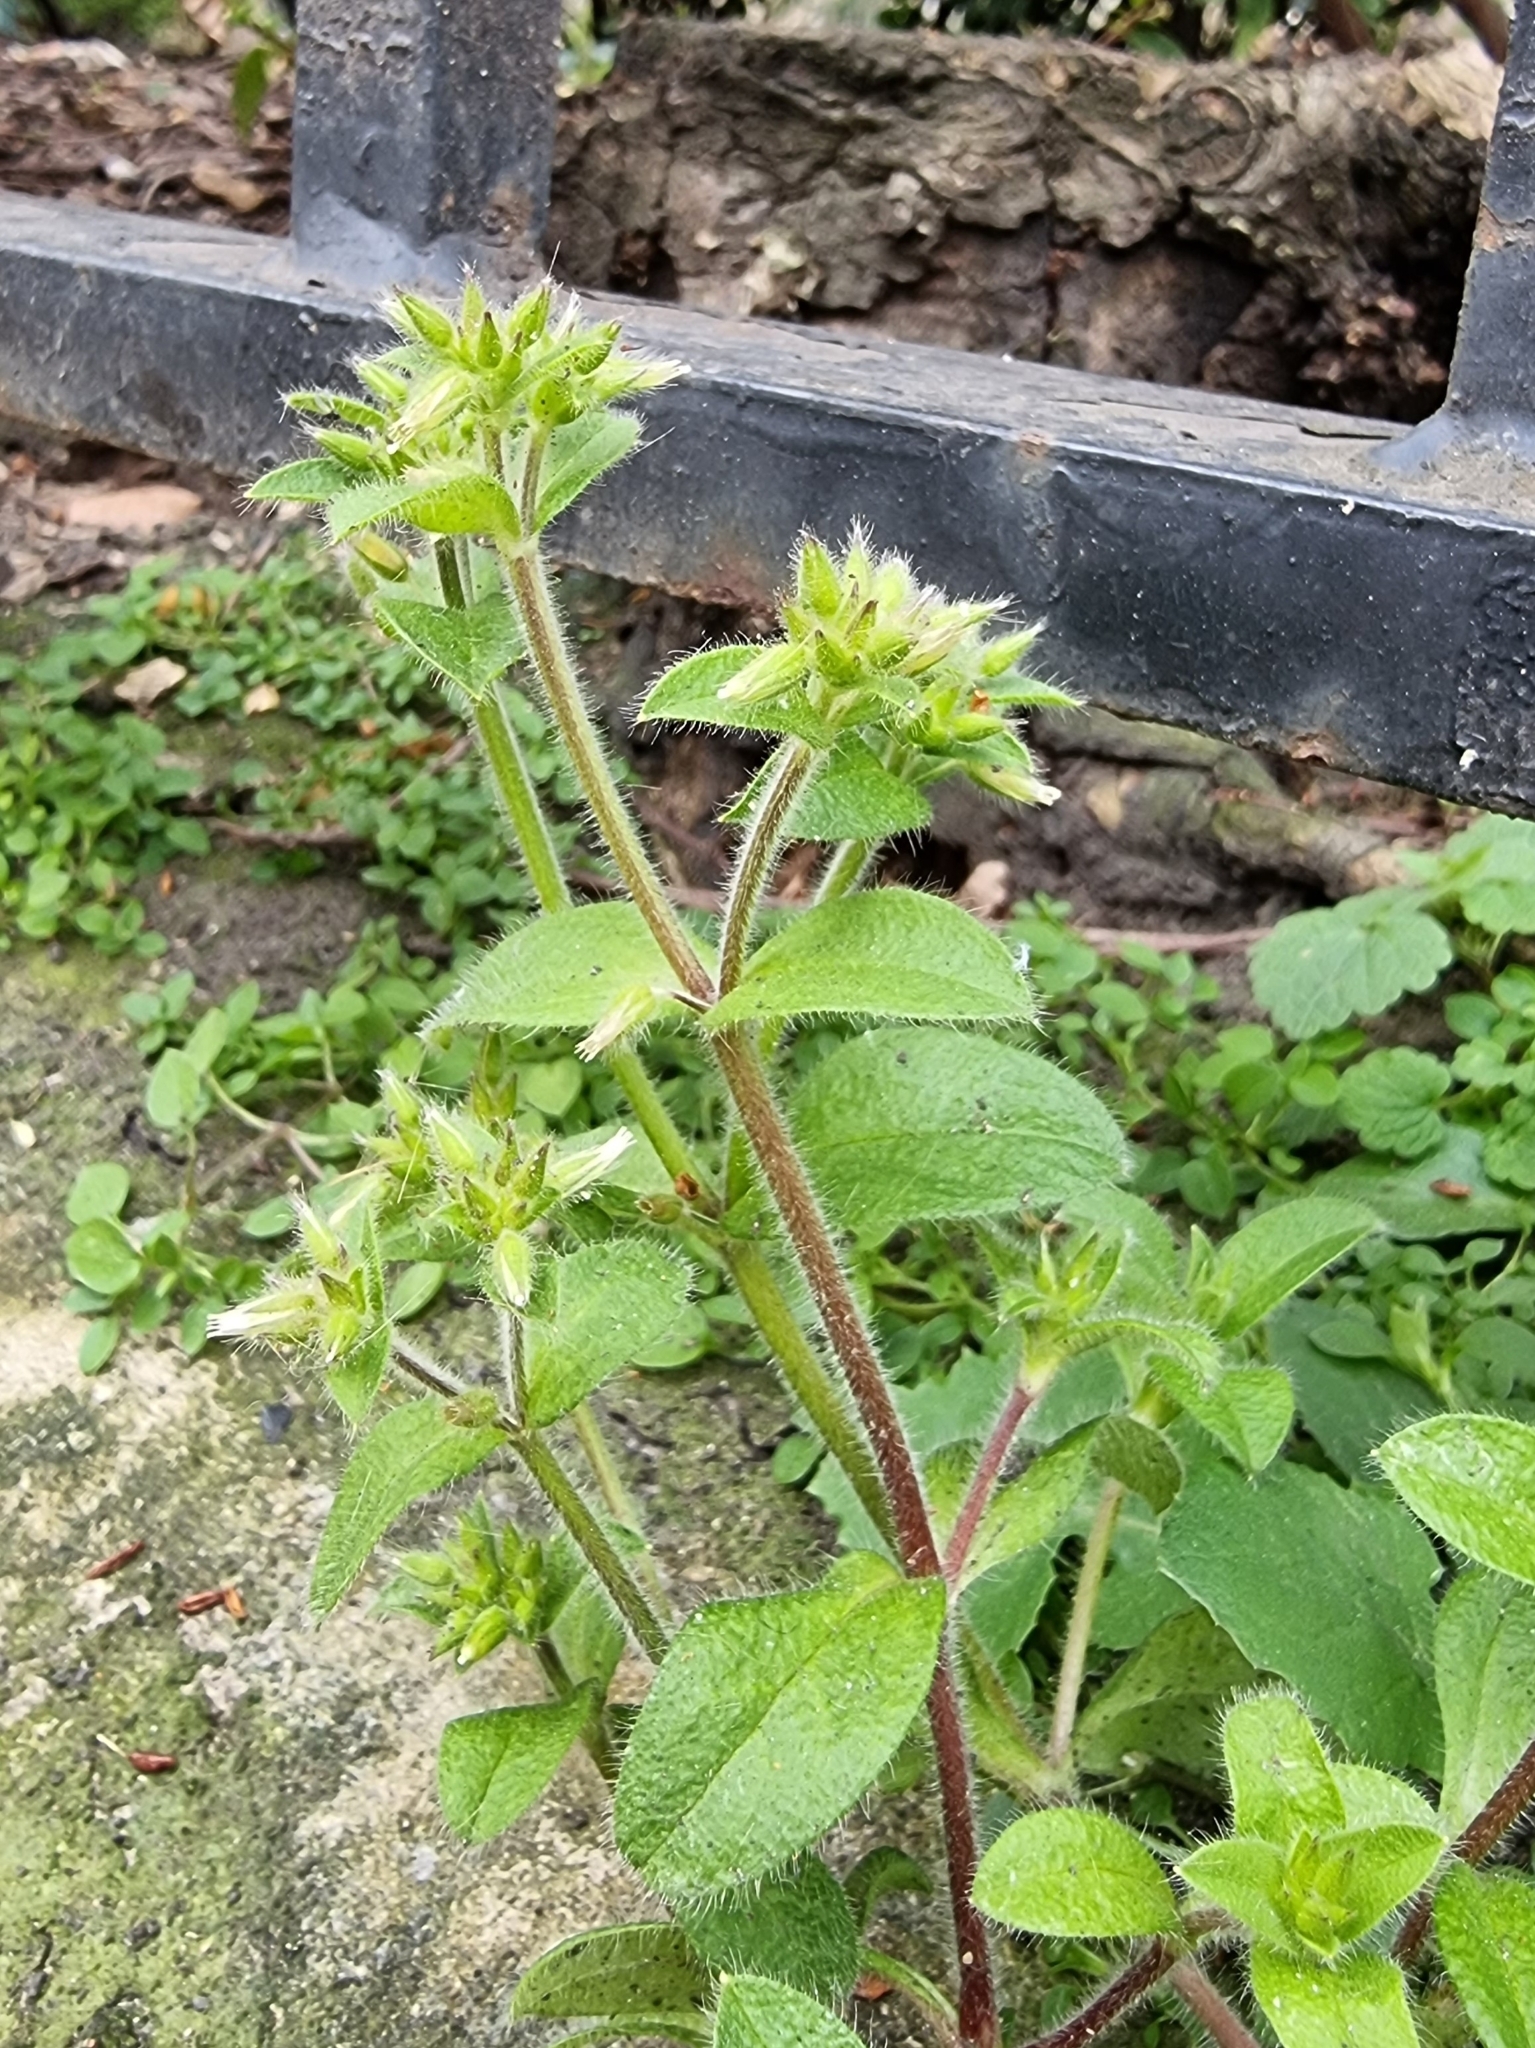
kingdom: Plantae
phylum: Tracheophyta
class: Magnoliopsida
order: Caryophyllales
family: Caryophyllaceae
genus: Cerastium
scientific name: Cerastium glomeratum
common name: Sticky chickweed
